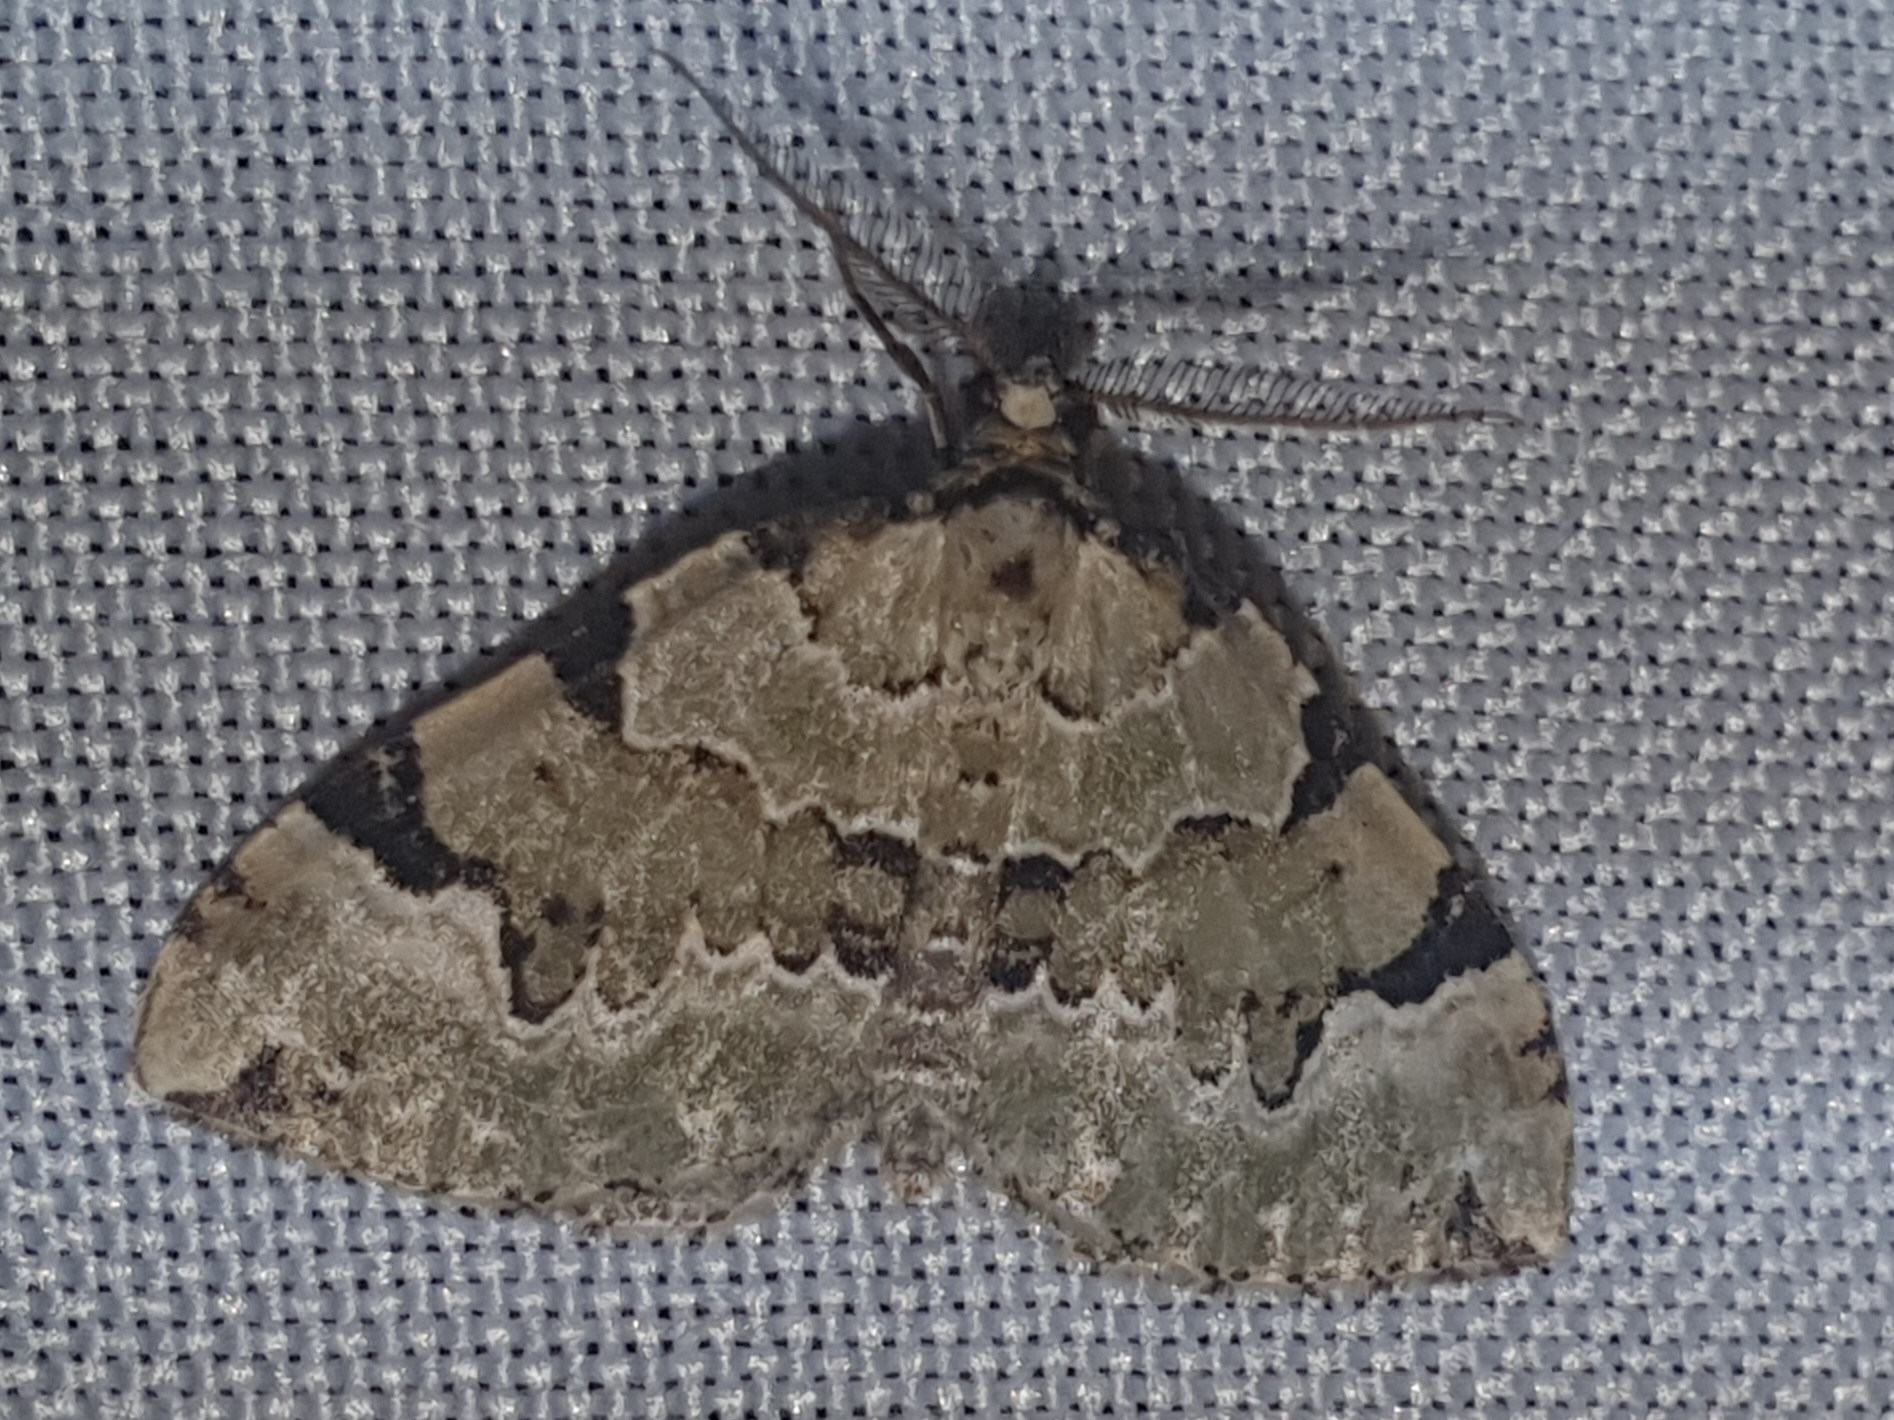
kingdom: Animalia
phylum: Arthropoda
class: Insecta
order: Lepidoptera
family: Geometridae
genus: Colostygia
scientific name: Colostygia pectinataria
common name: Green carpet
